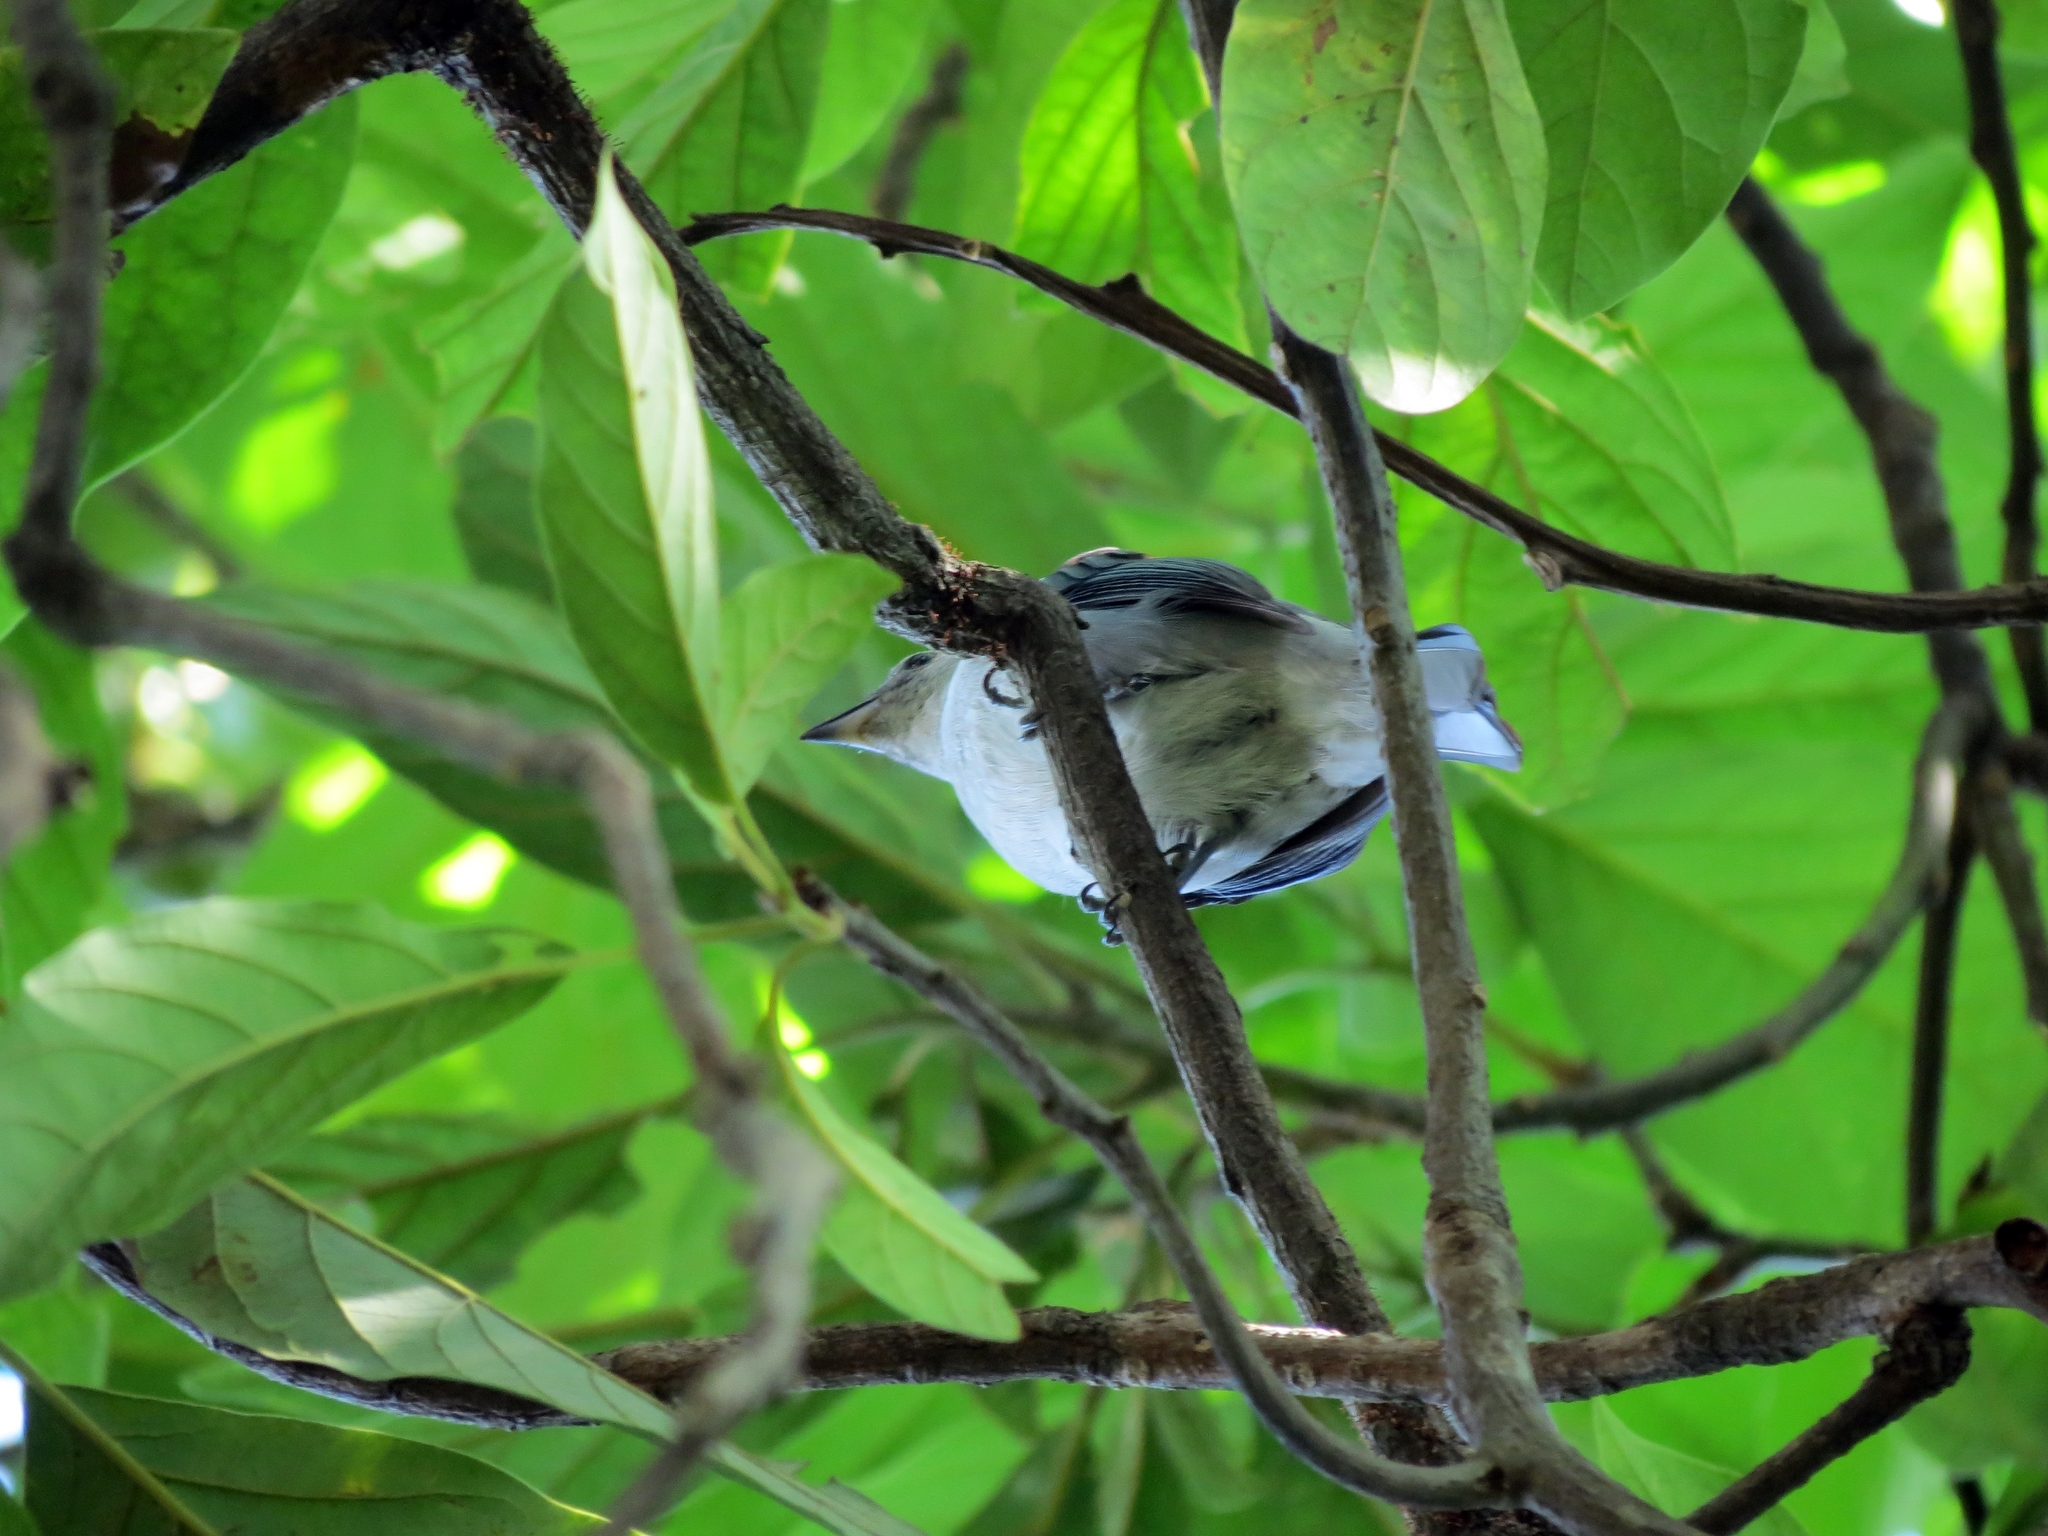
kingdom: Animalia
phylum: Chordata
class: Aves
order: Passeriformes
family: Thraupidae
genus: Thraupis
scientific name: Thraupis episcopus
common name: Blue-grey tanager
